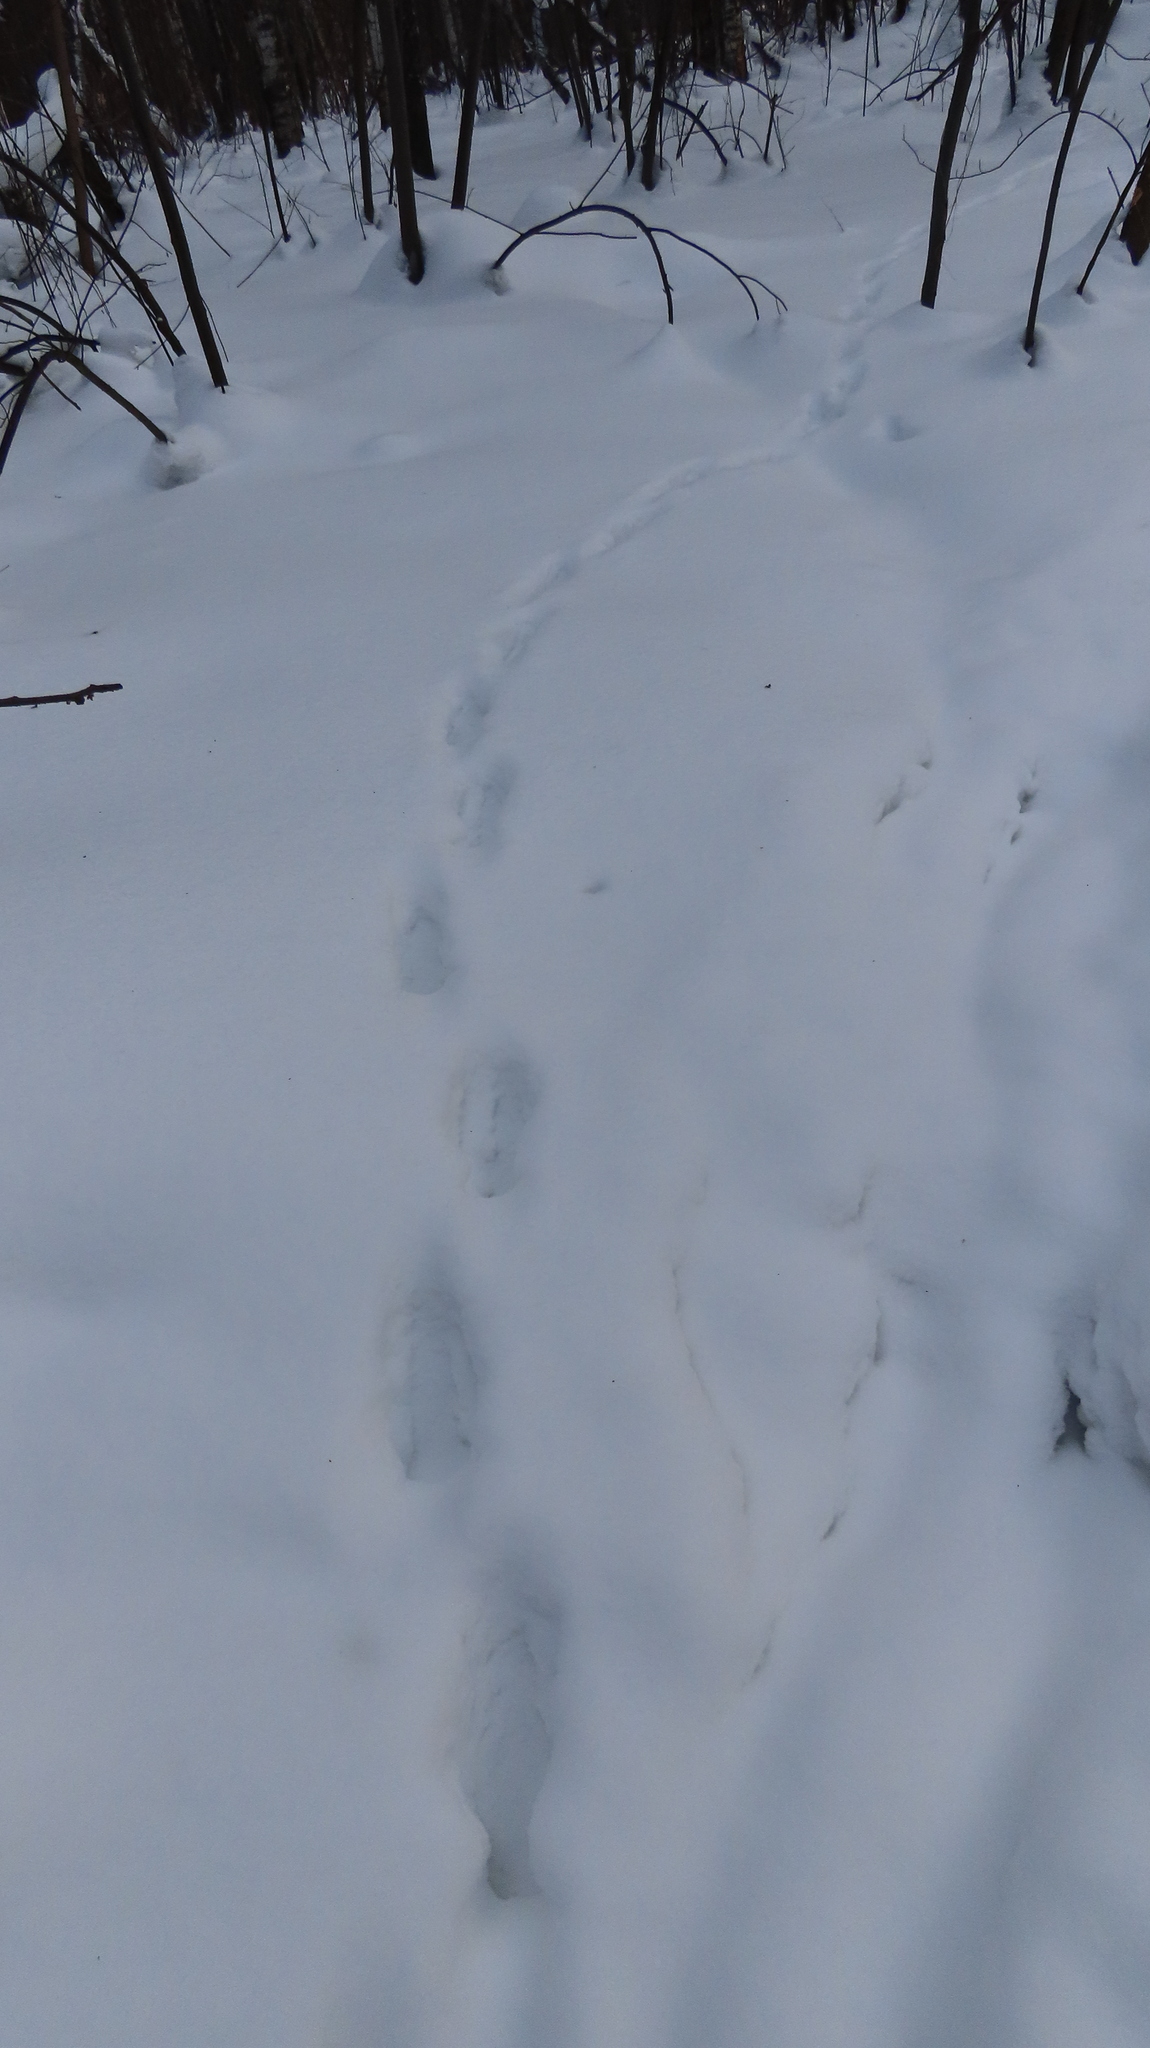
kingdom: Animalia
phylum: Chordata
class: Mammalia
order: Carnivora
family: Canidae
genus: Vulpes
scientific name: Vulpes vulpes
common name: Red fox
